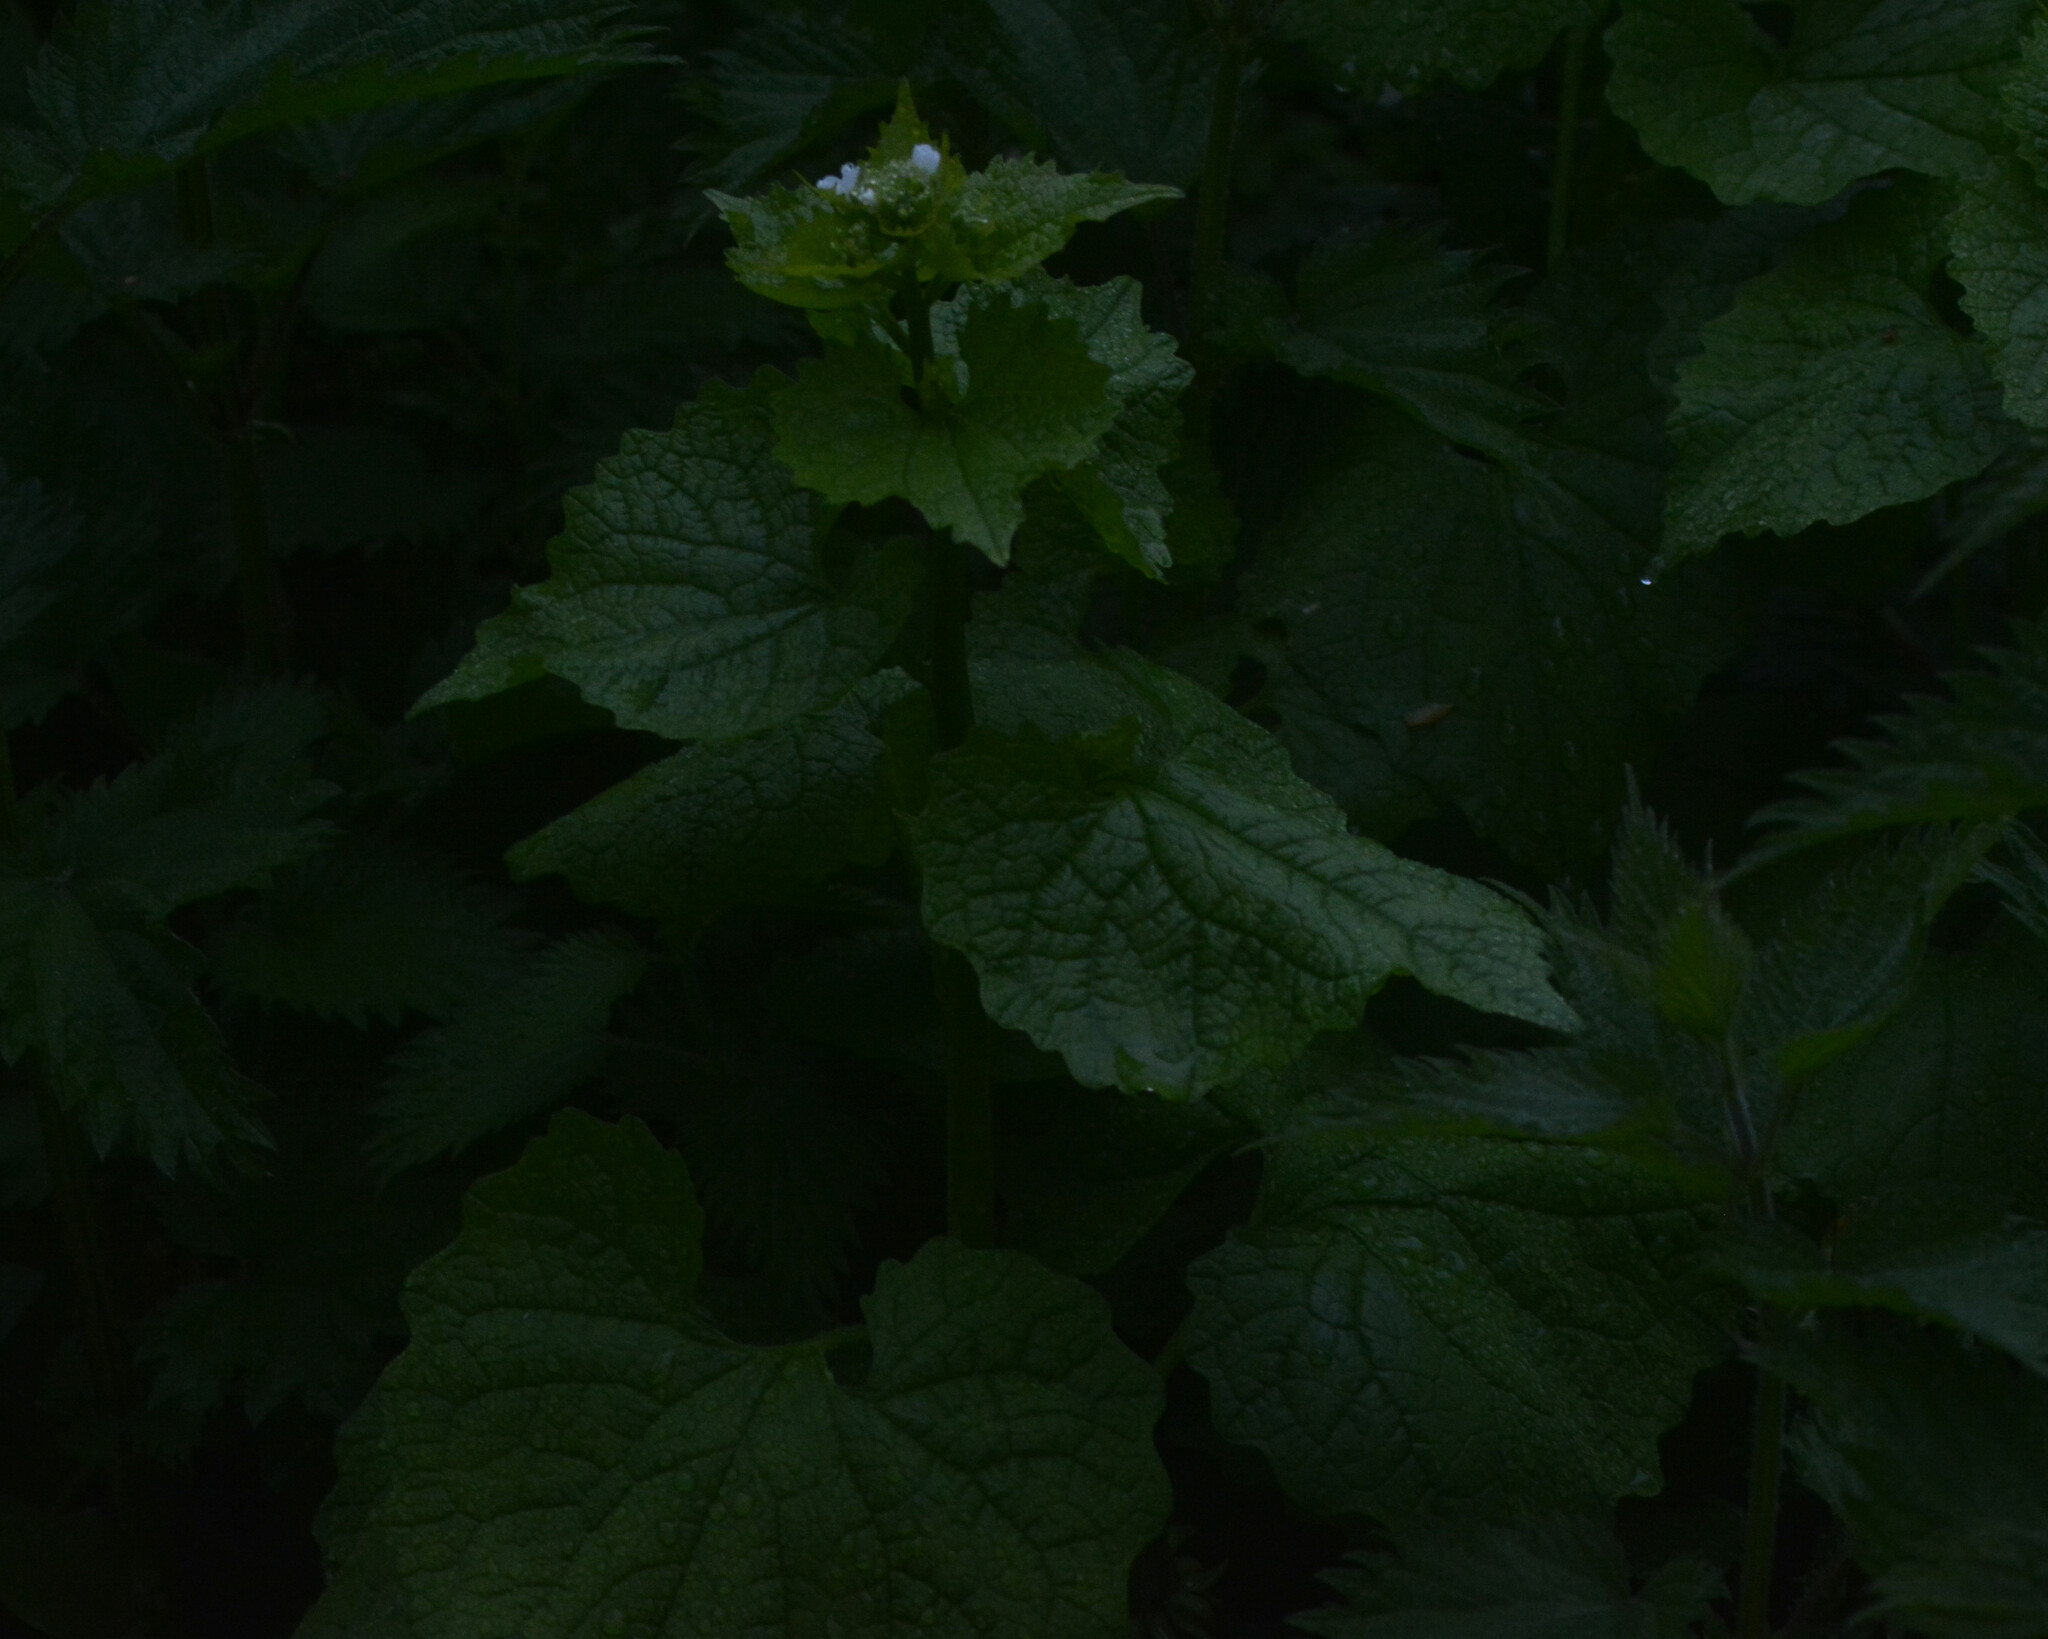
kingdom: Plantae
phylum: Tracheophyta
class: Magnoliopsida
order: Brassicales
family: Brassicaceae
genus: Alliaria
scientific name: Alliaria petiolata
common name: Garlic mustard
